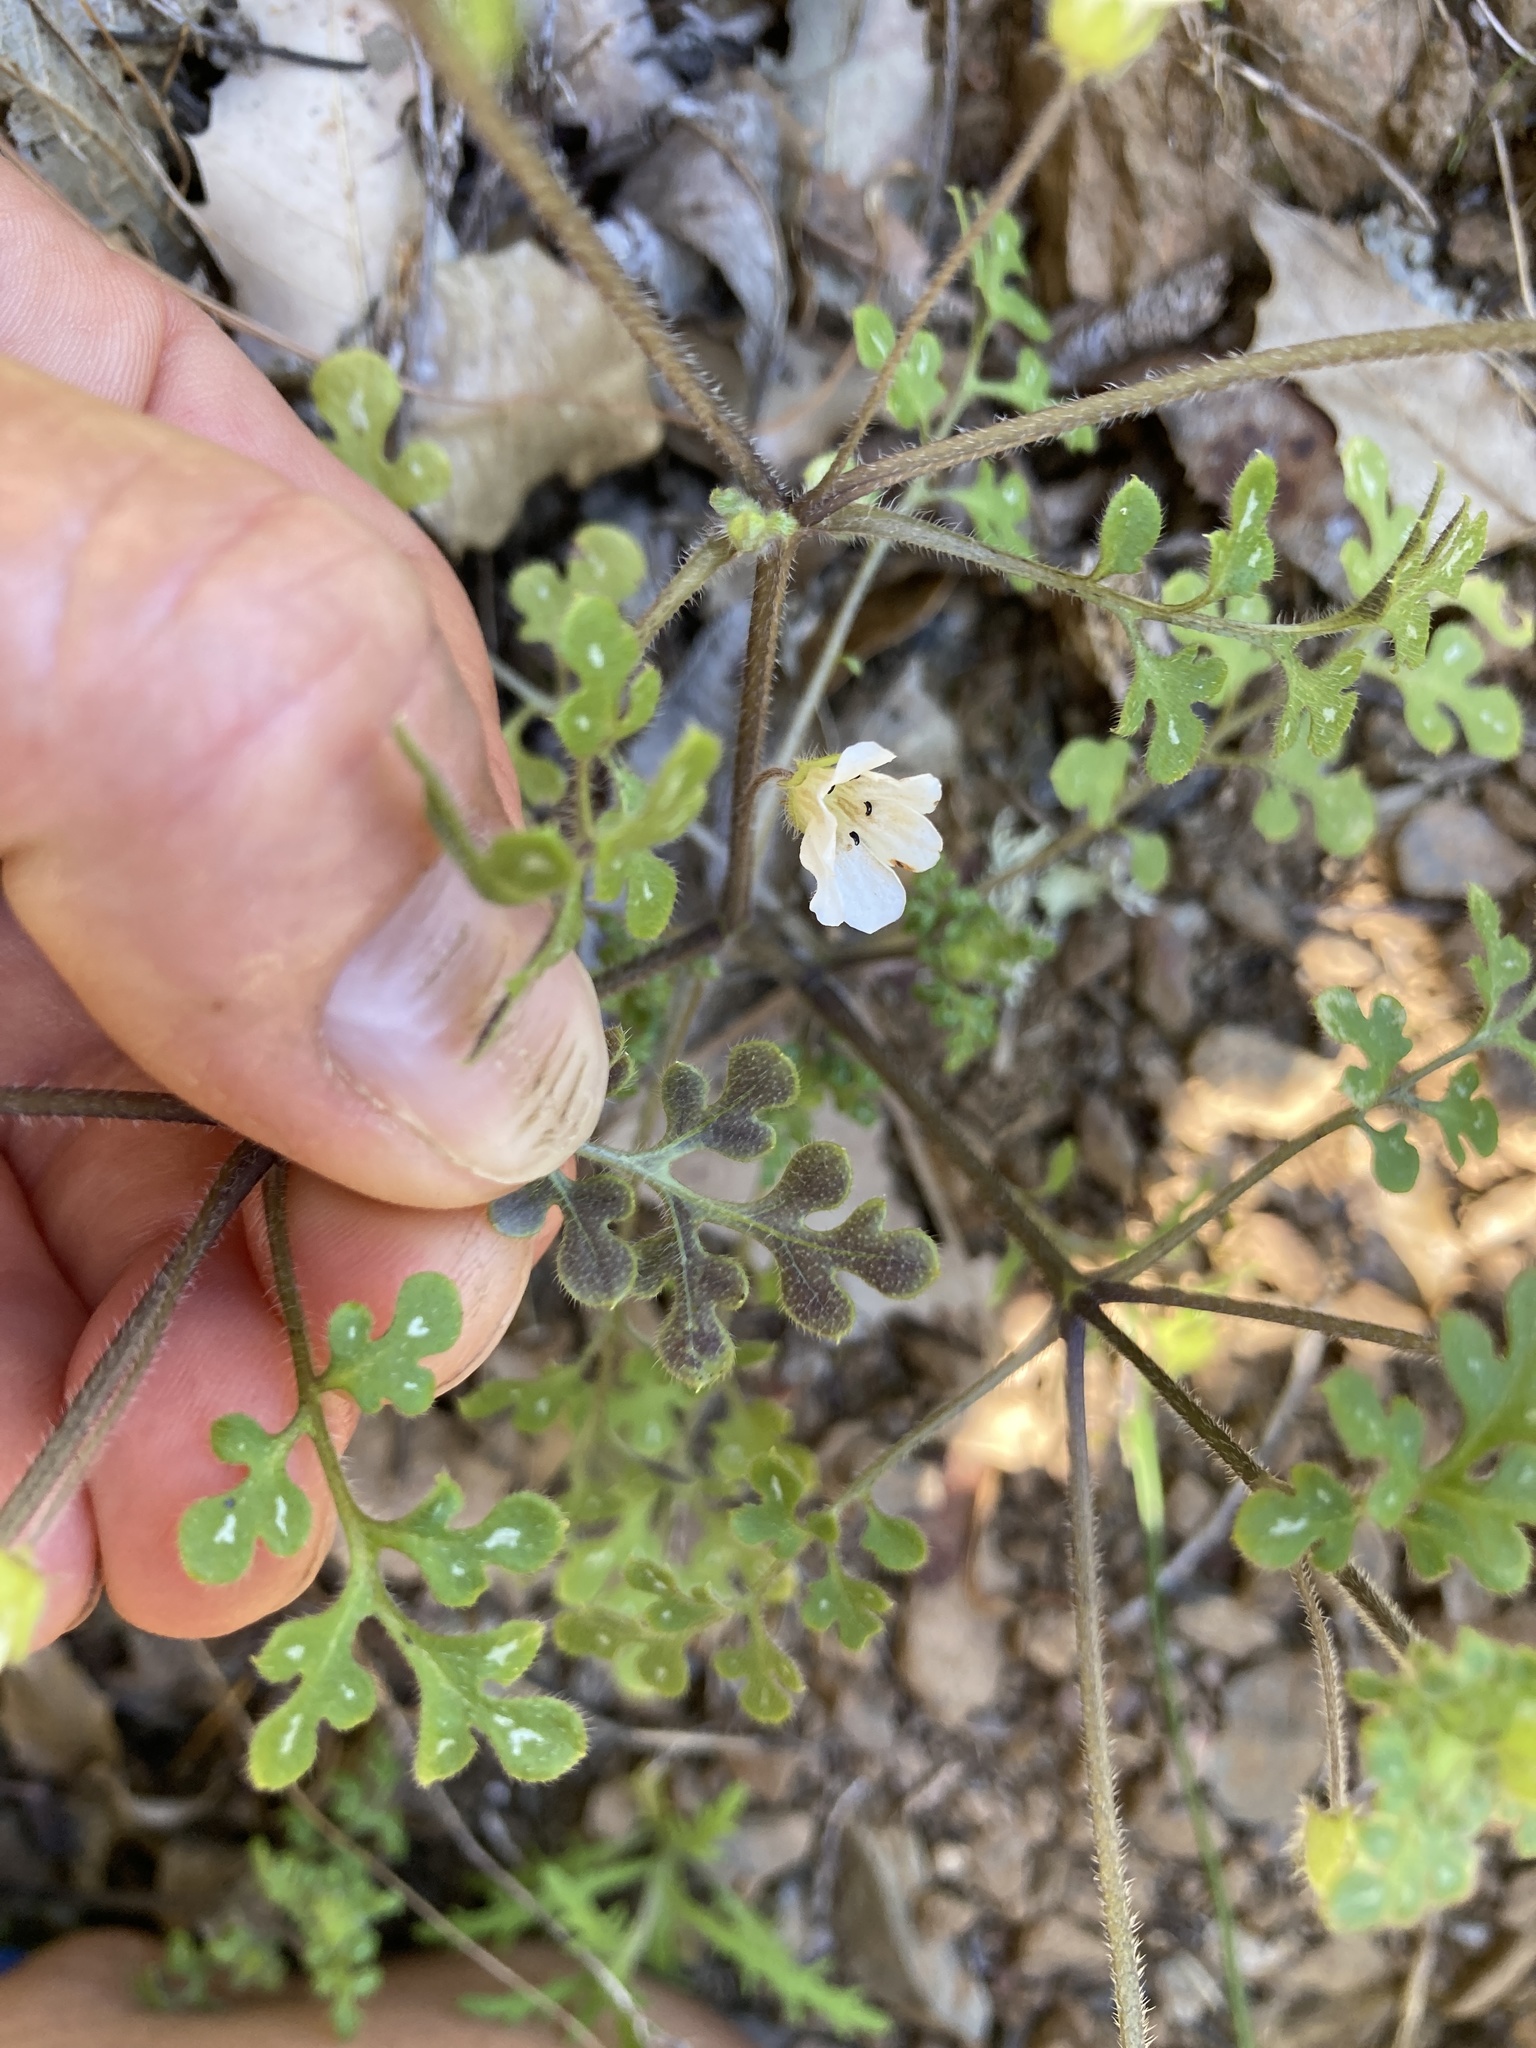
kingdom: Plantae
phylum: Tracheophyta
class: Magnoliopsida
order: Boraginales
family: Hydrophyllaceae
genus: Nemophila
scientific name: Nemophila heterophylla
